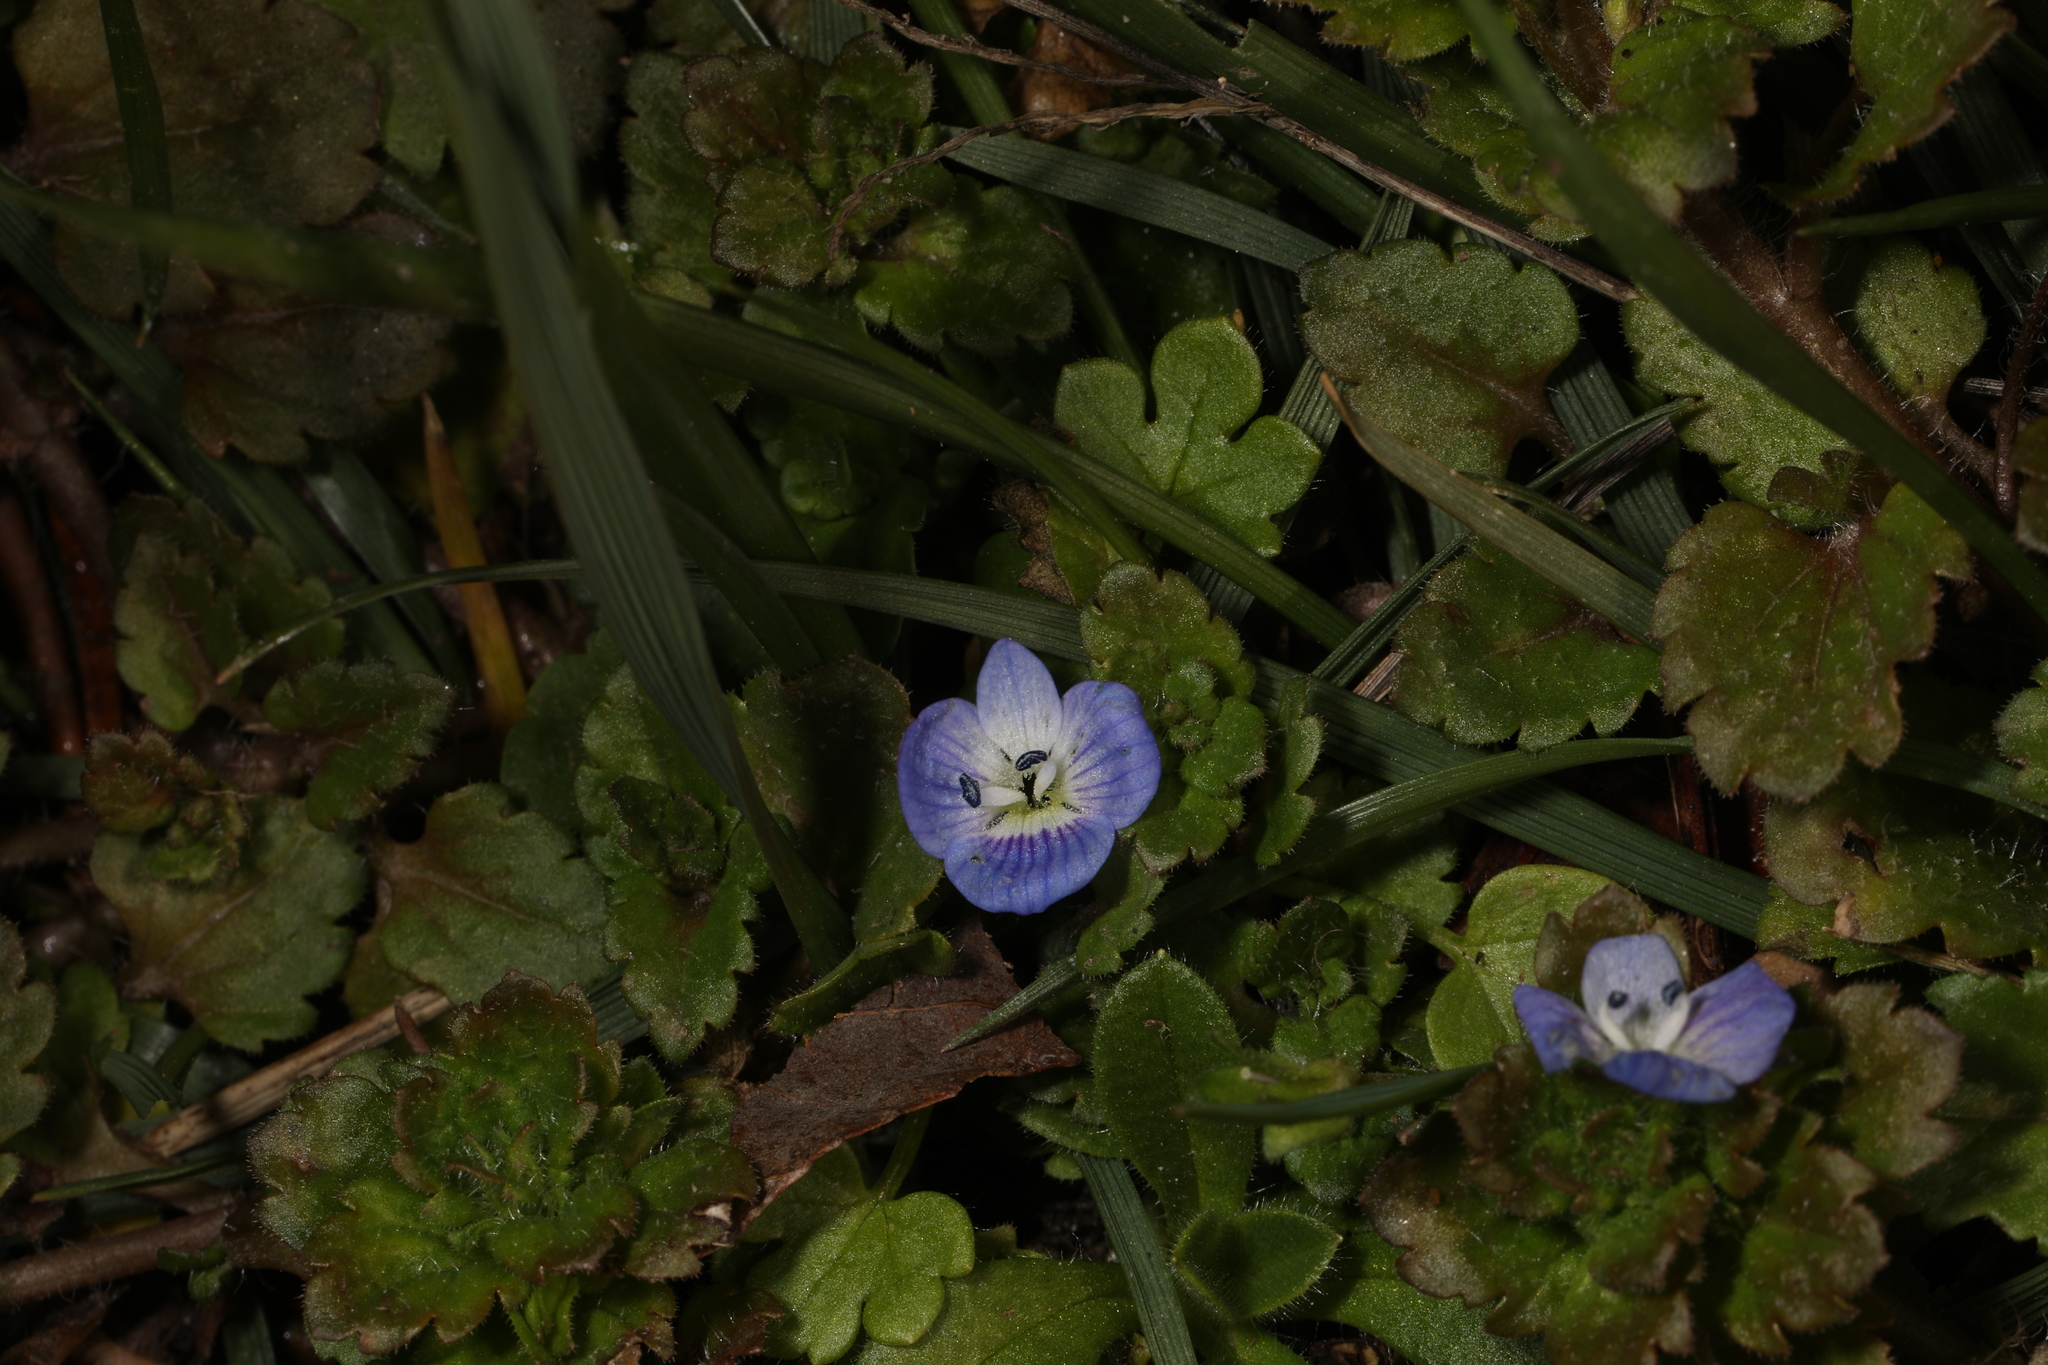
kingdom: Plantae
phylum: Tracheophyta
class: Magnoliopsida
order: Lamiales
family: Plantaginaceae
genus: Veronica
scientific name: Veronica persica
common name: Common field-speedwell
